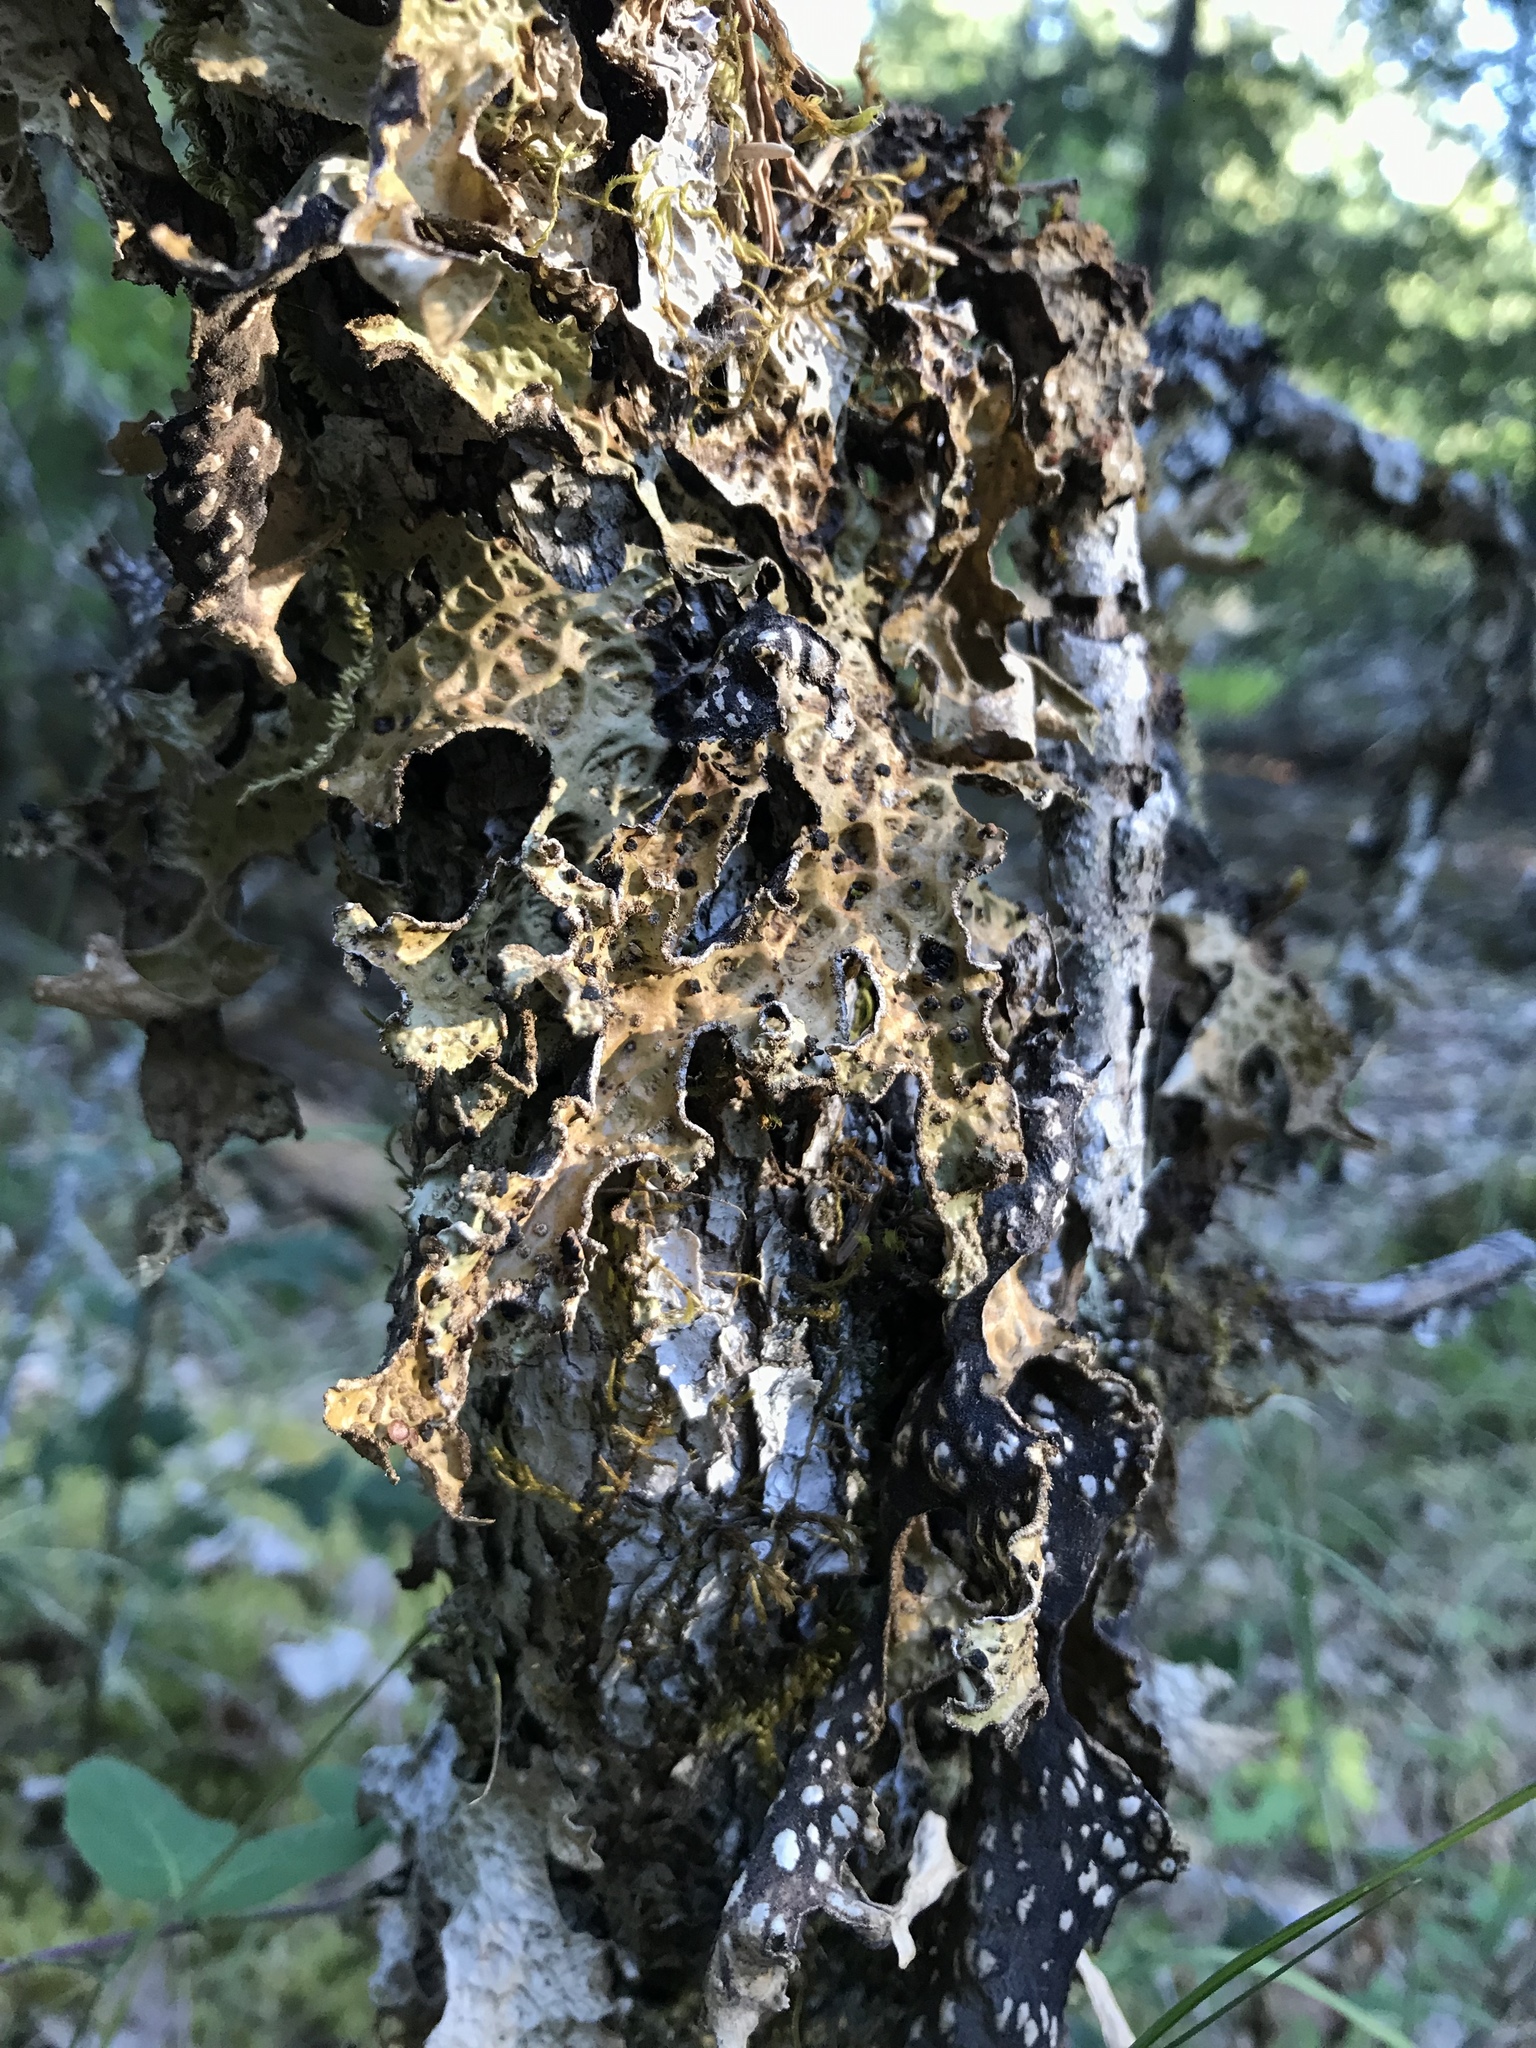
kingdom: Fungi
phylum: Ascomycota
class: Lecanoromycetes
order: Peltigerales
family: Lobariaceae
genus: Lobaria
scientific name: Lobaria pulmonaria
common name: Lungwort
